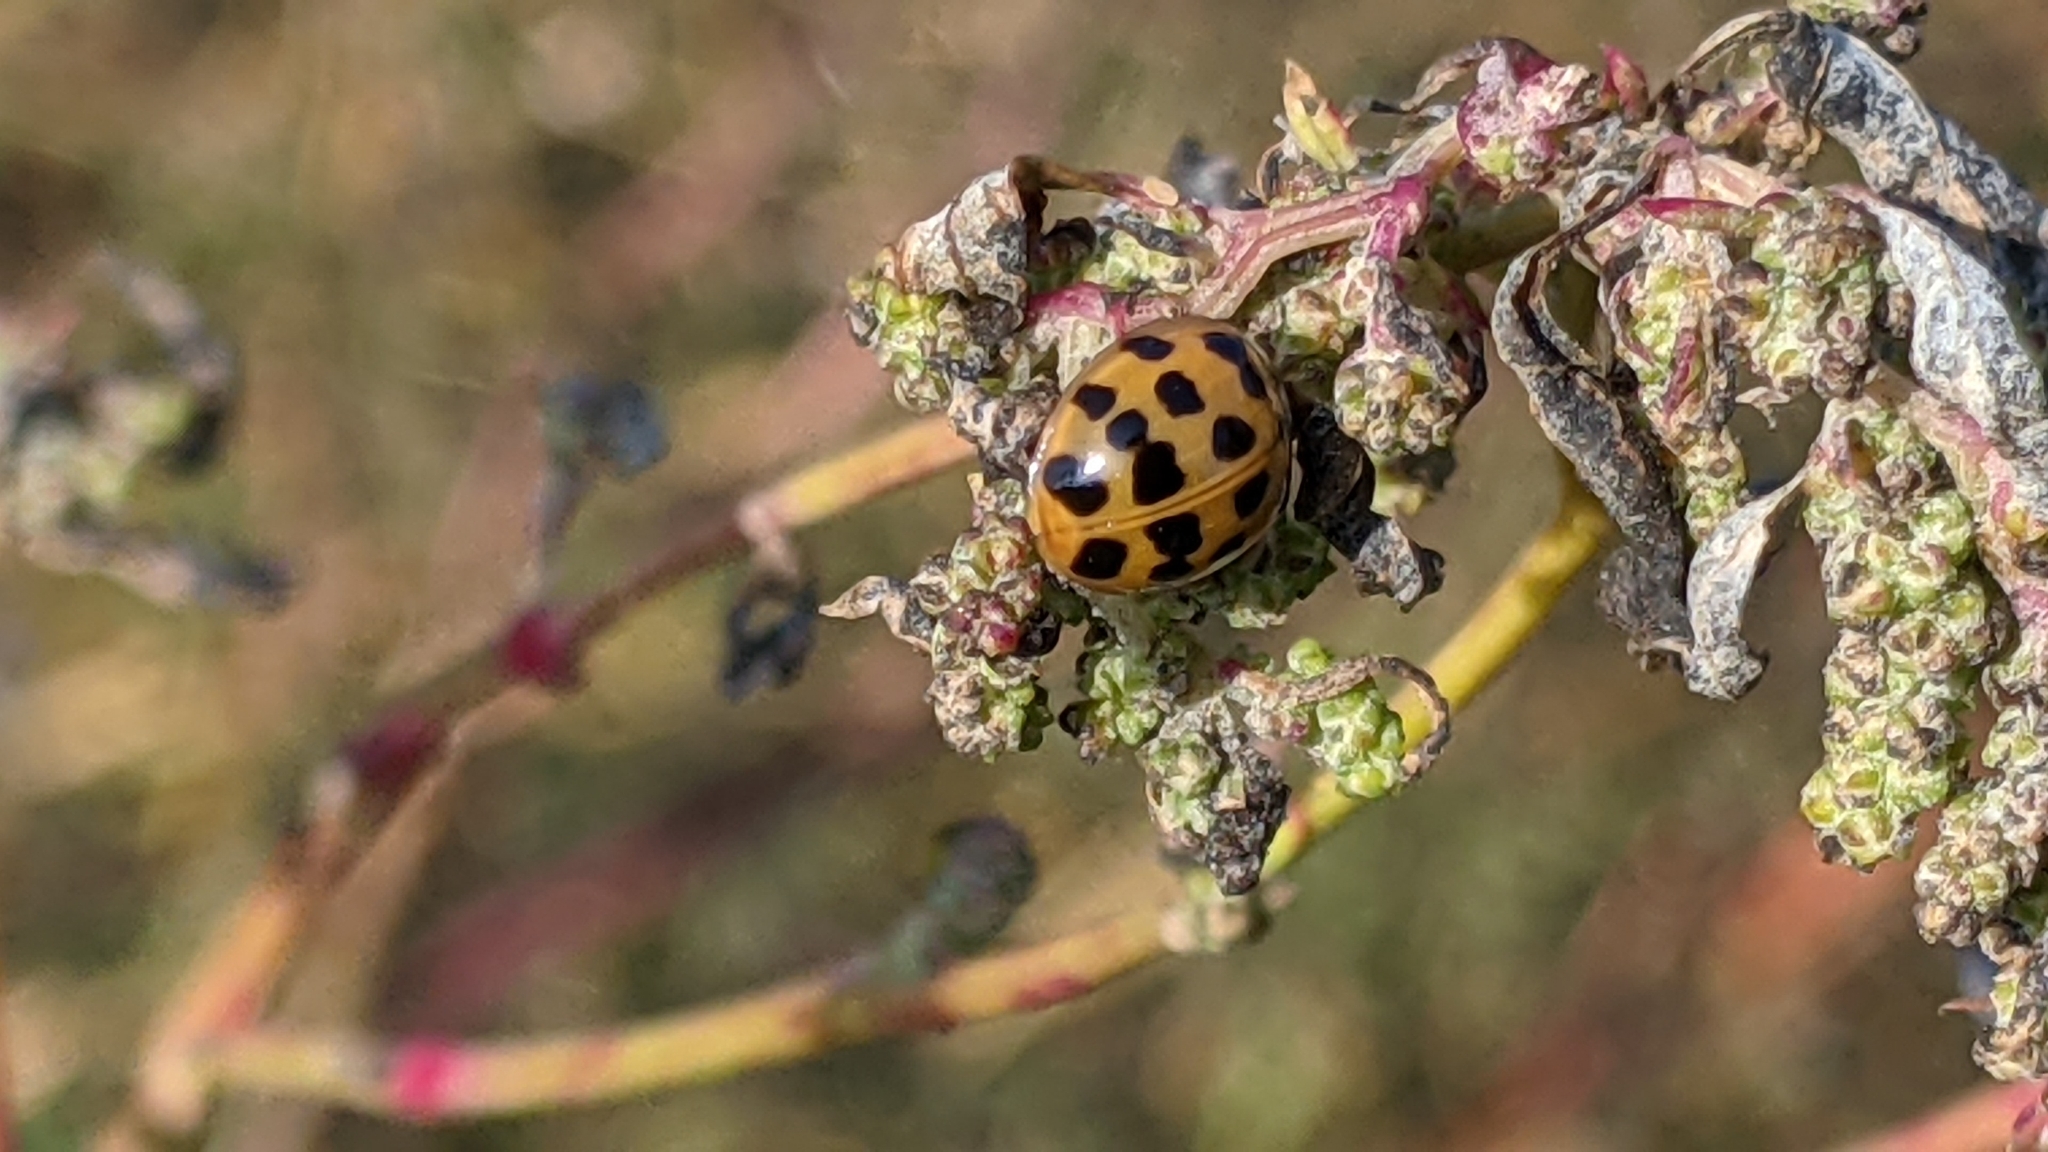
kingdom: Animalia
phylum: Arthropoda
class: Insecta
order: Coleoptera
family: Coccinellidae
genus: Harmonia
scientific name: Harmonia axyridis
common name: Harlequin ladybird
